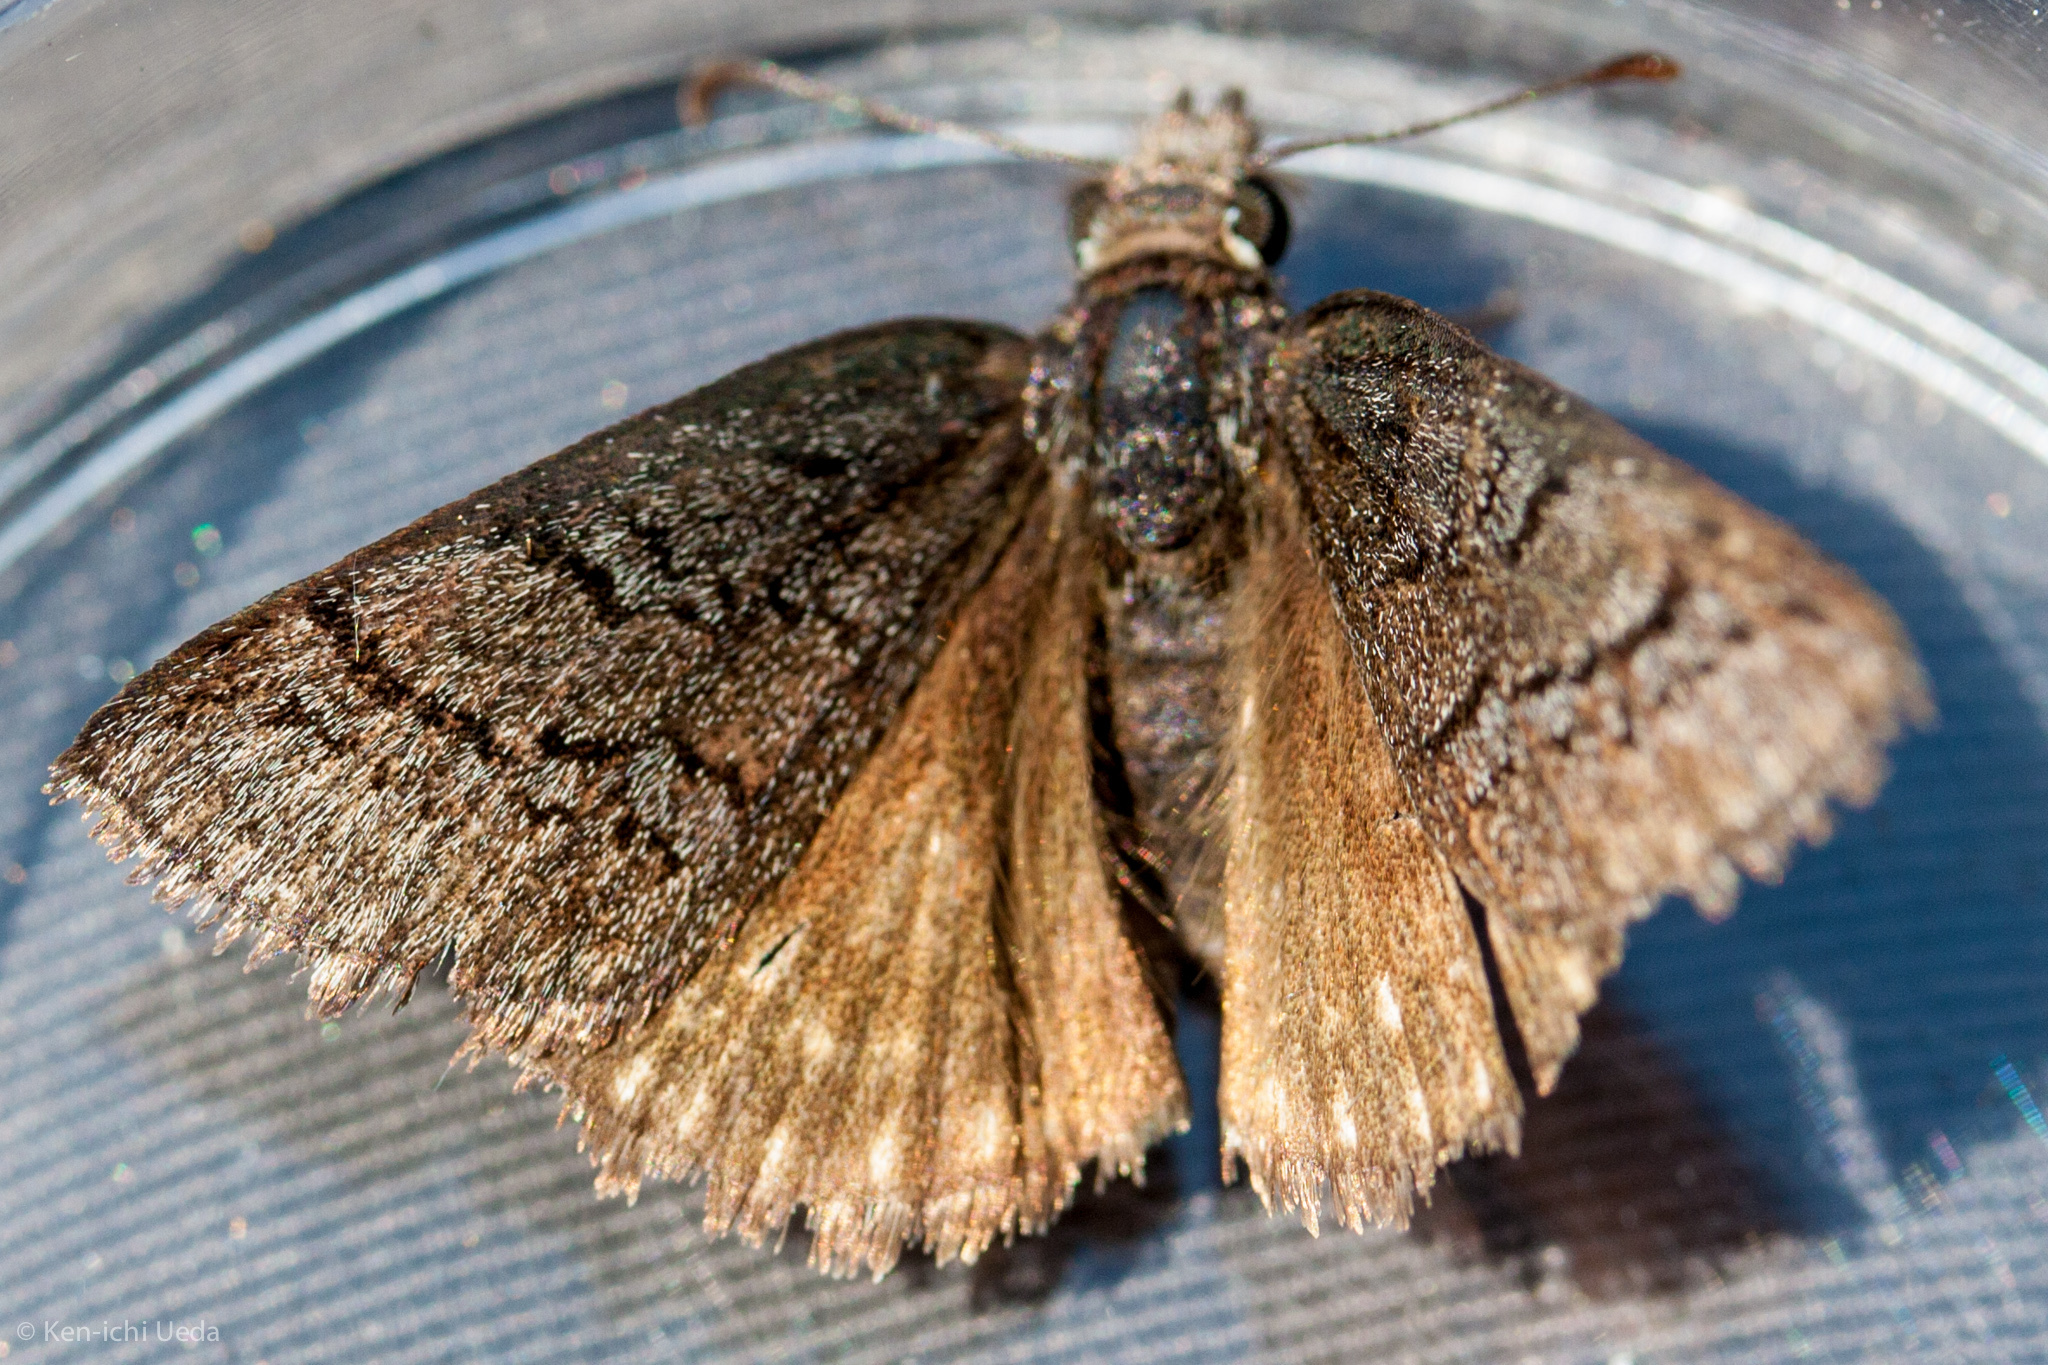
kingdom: Animalia
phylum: Arthropoda
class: Insecta
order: Lepidoptera
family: Hesperiidae
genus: Erynnis
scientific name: Erynnis brizo
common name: Sleepy duskywing
